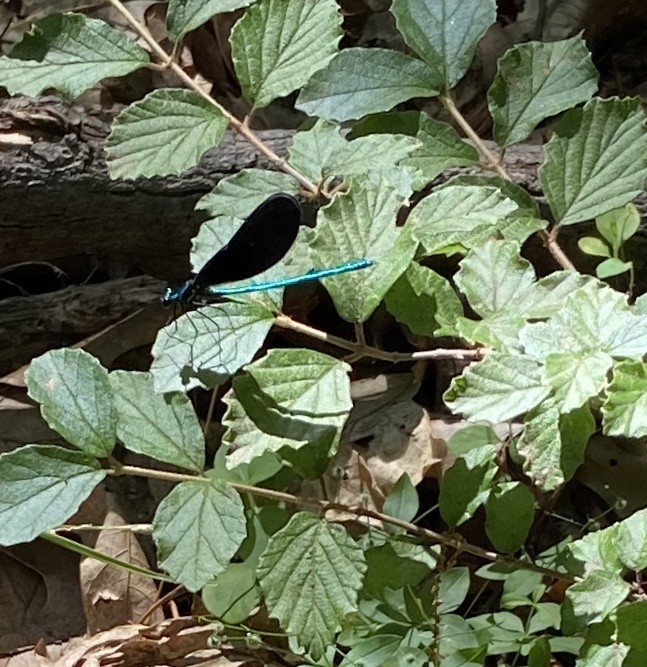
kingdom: Animalia
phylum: Arthropoda
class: Insecta
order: Odonata
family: Calopterygidae
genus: Calopteryx
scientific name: Calopteryx maculata
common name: Ebony jewelwing
